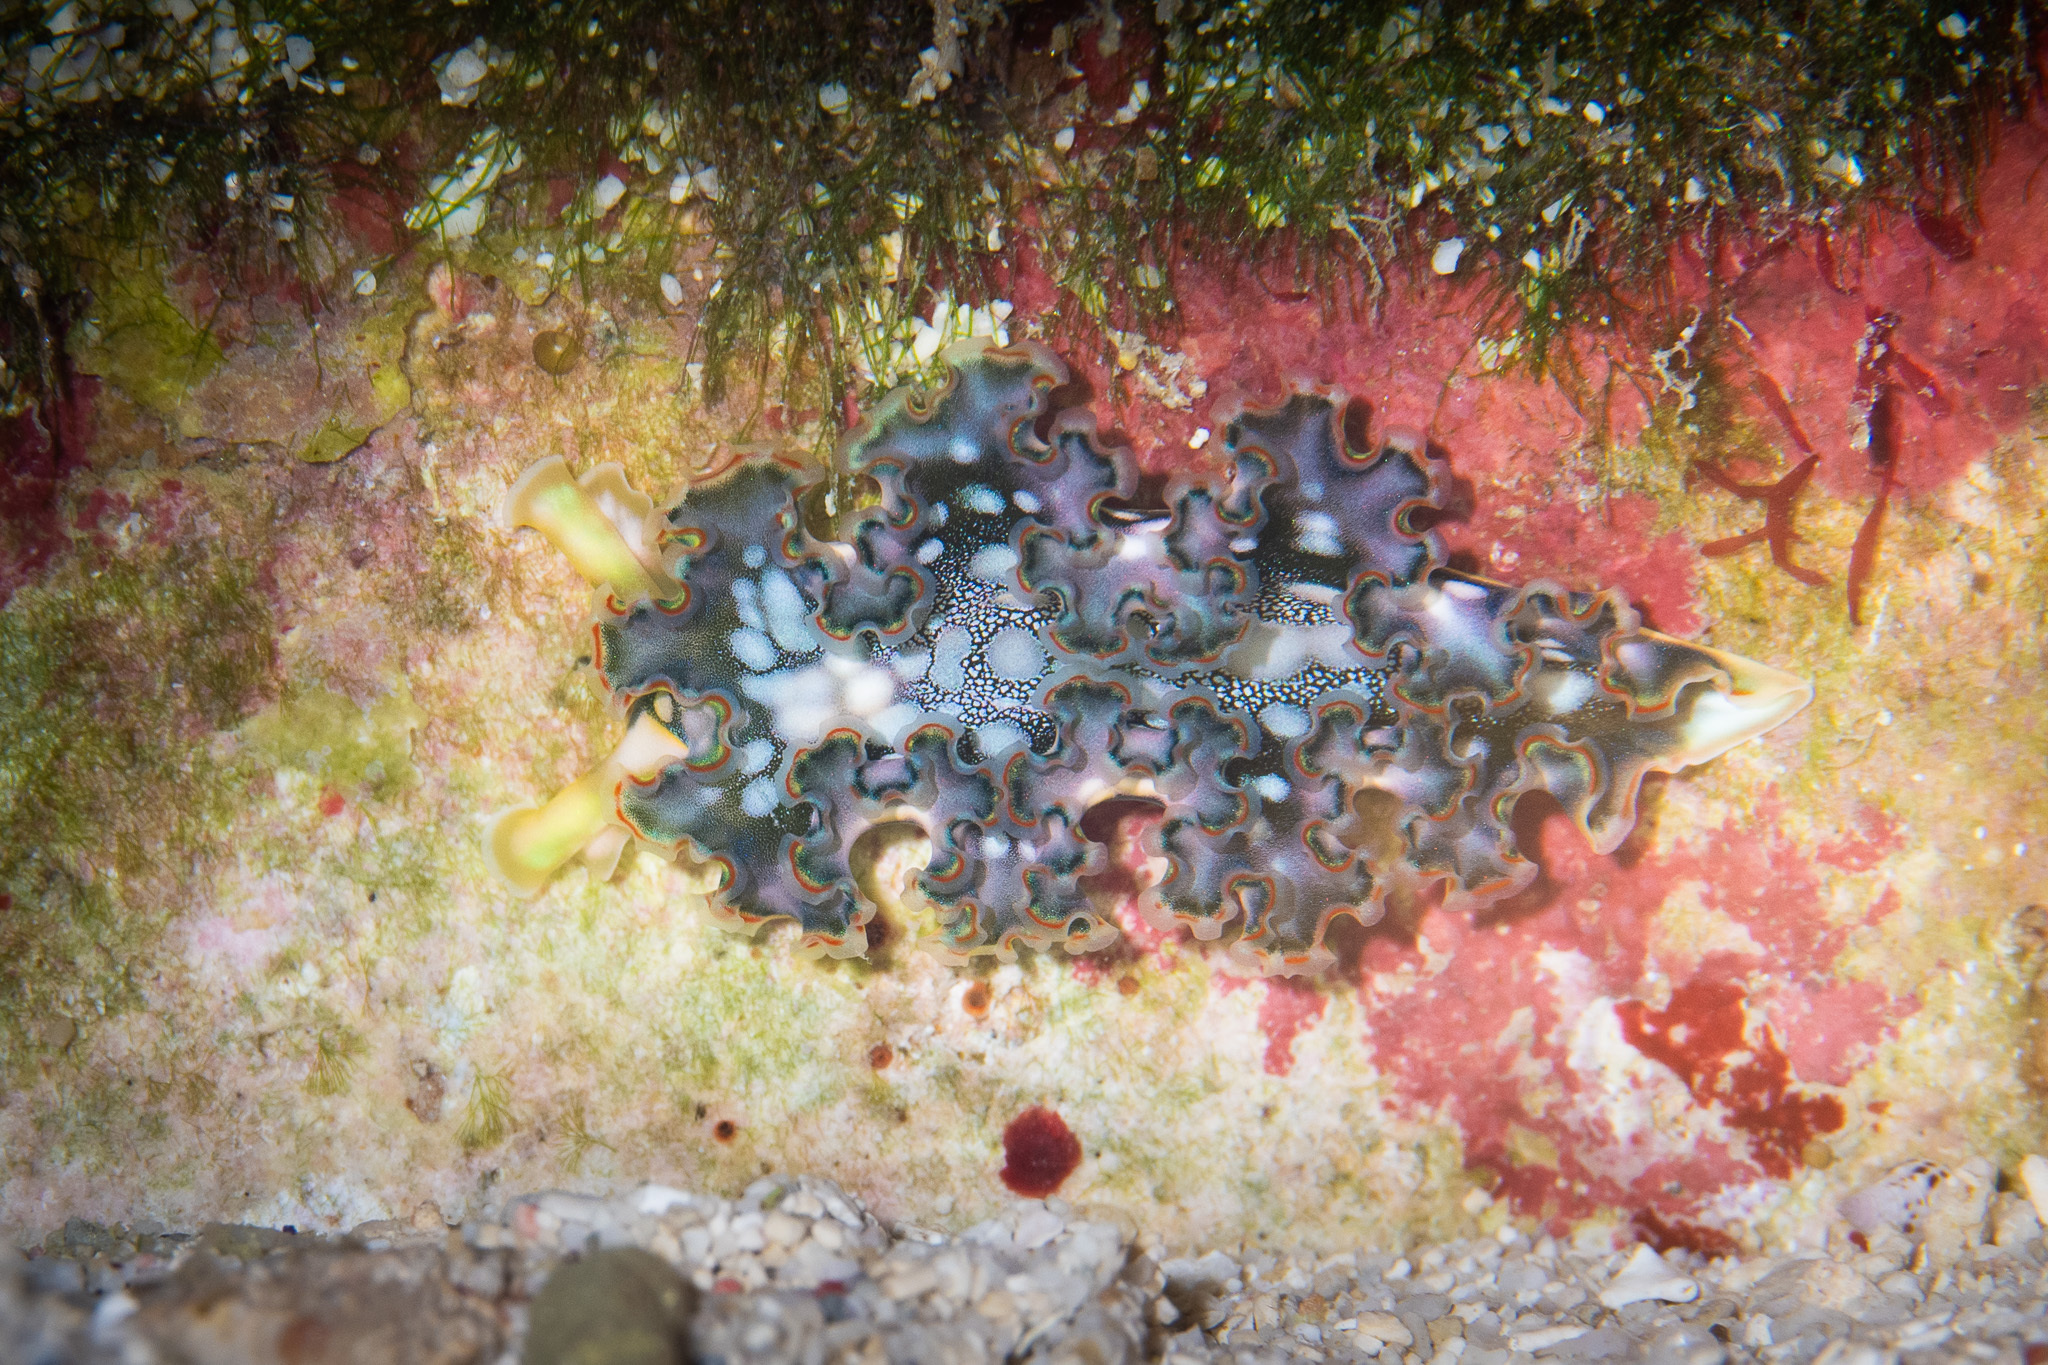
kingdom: Animalia
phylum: Mollusca
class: Gastropoda
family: Plakobranchidae
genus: Elysia
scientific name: Elysia crispata
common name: Lettuce slug
